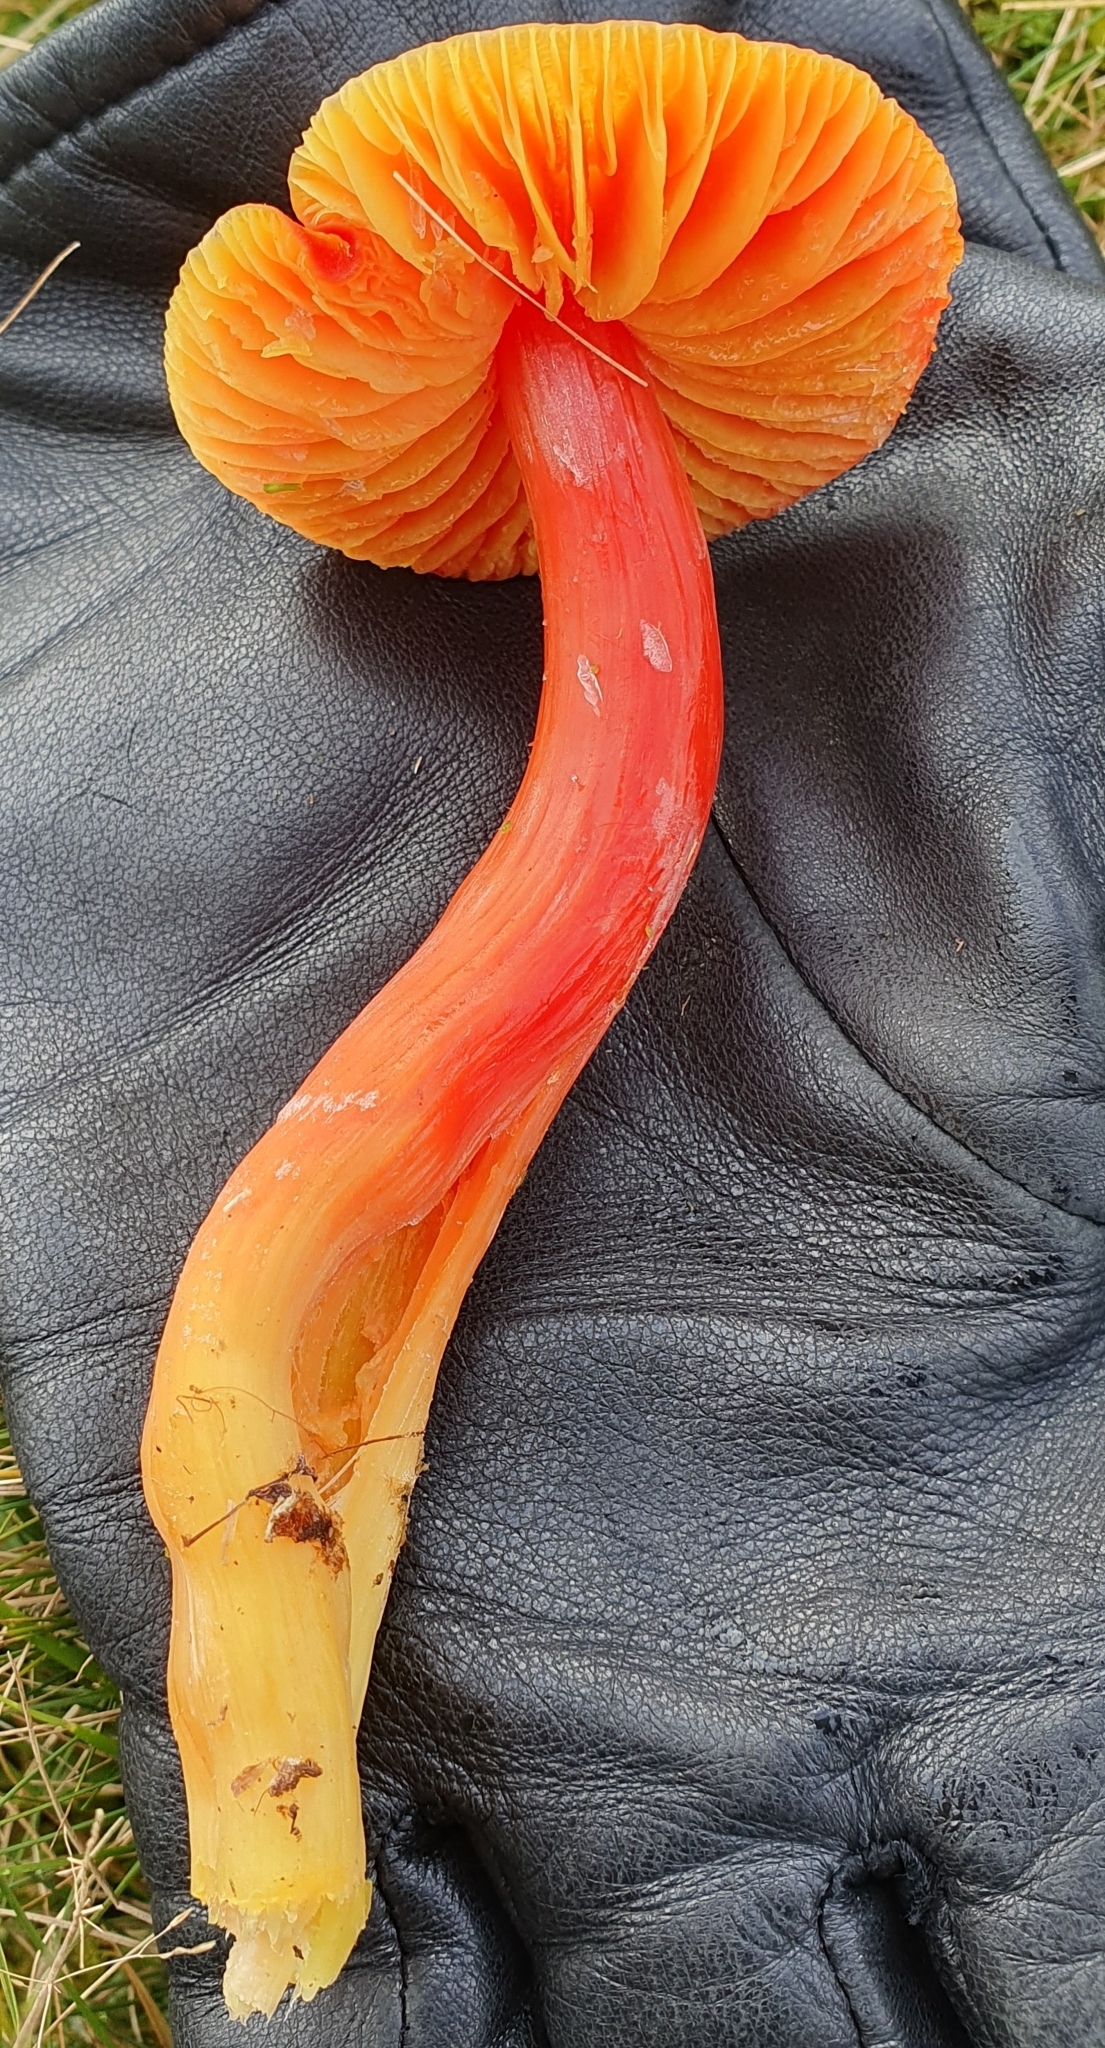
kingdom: Fungi
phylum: Basidiomycota
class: Agaricomycetes
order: Agaricales
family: Hygrophoraceae
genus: Hygrocybe
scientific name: Hygrocybe punicea
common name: Crimson waxcap
